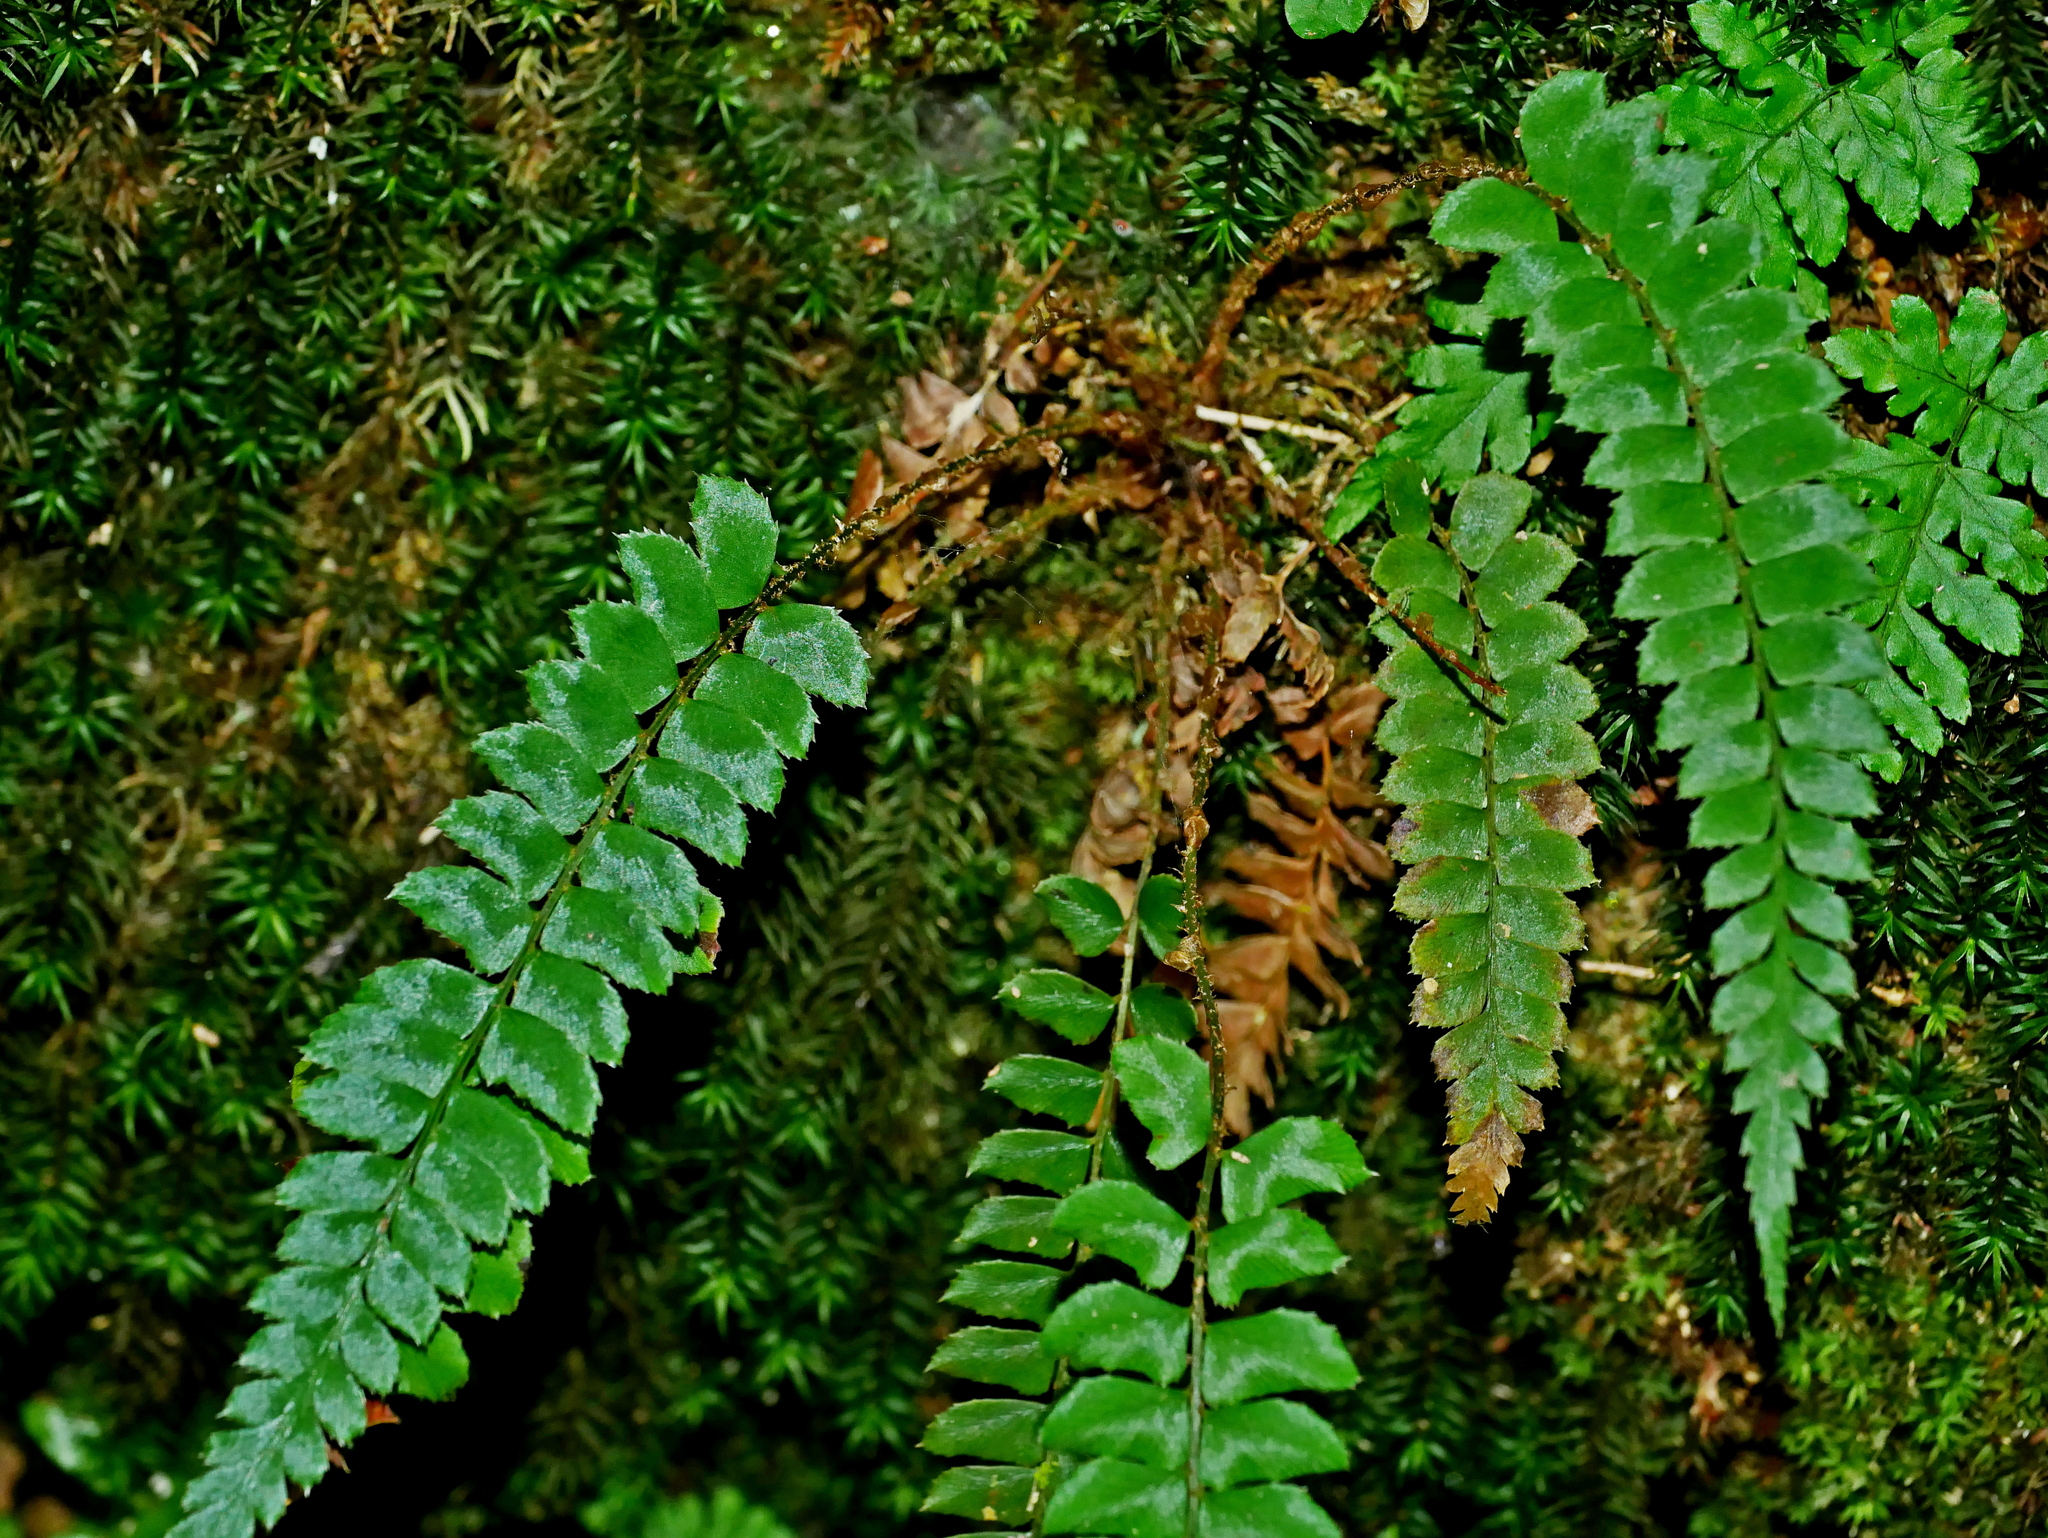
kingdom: Plantae
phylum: Tracheophyta
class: Polypodiopsida
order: Polypodiales
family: Dryopteridaceae
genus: Polystichum
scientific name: Polystichum nepalense
